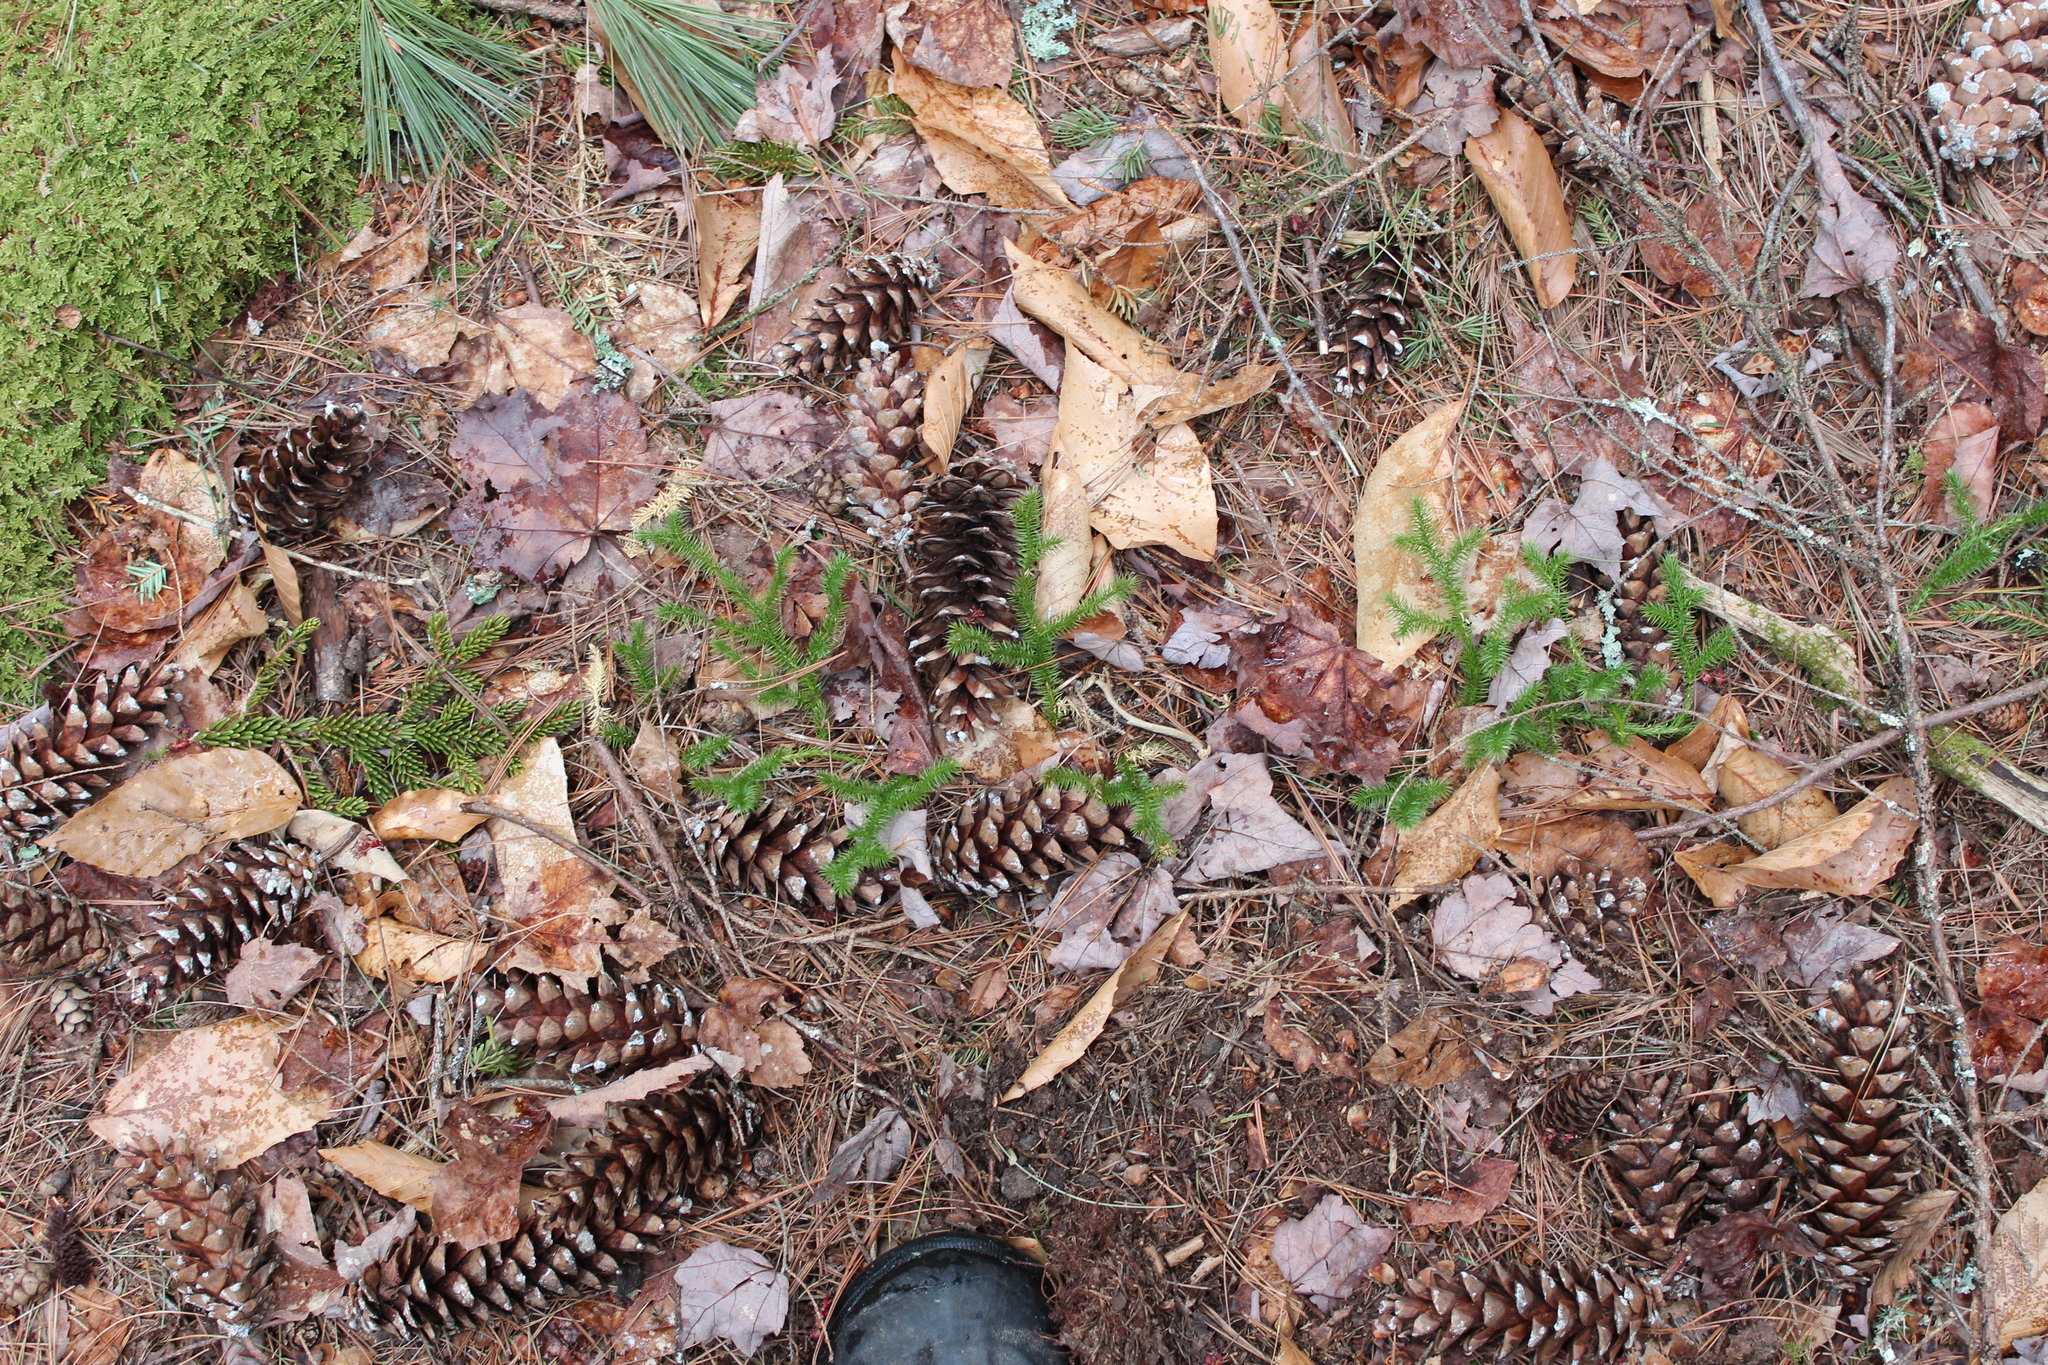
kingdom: Plantae
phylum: Tracheophyta
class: Pinopsida
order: Pinales
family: Pinaceae
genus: Pinus
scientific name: Pinus strobus
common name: Weymouth pine
